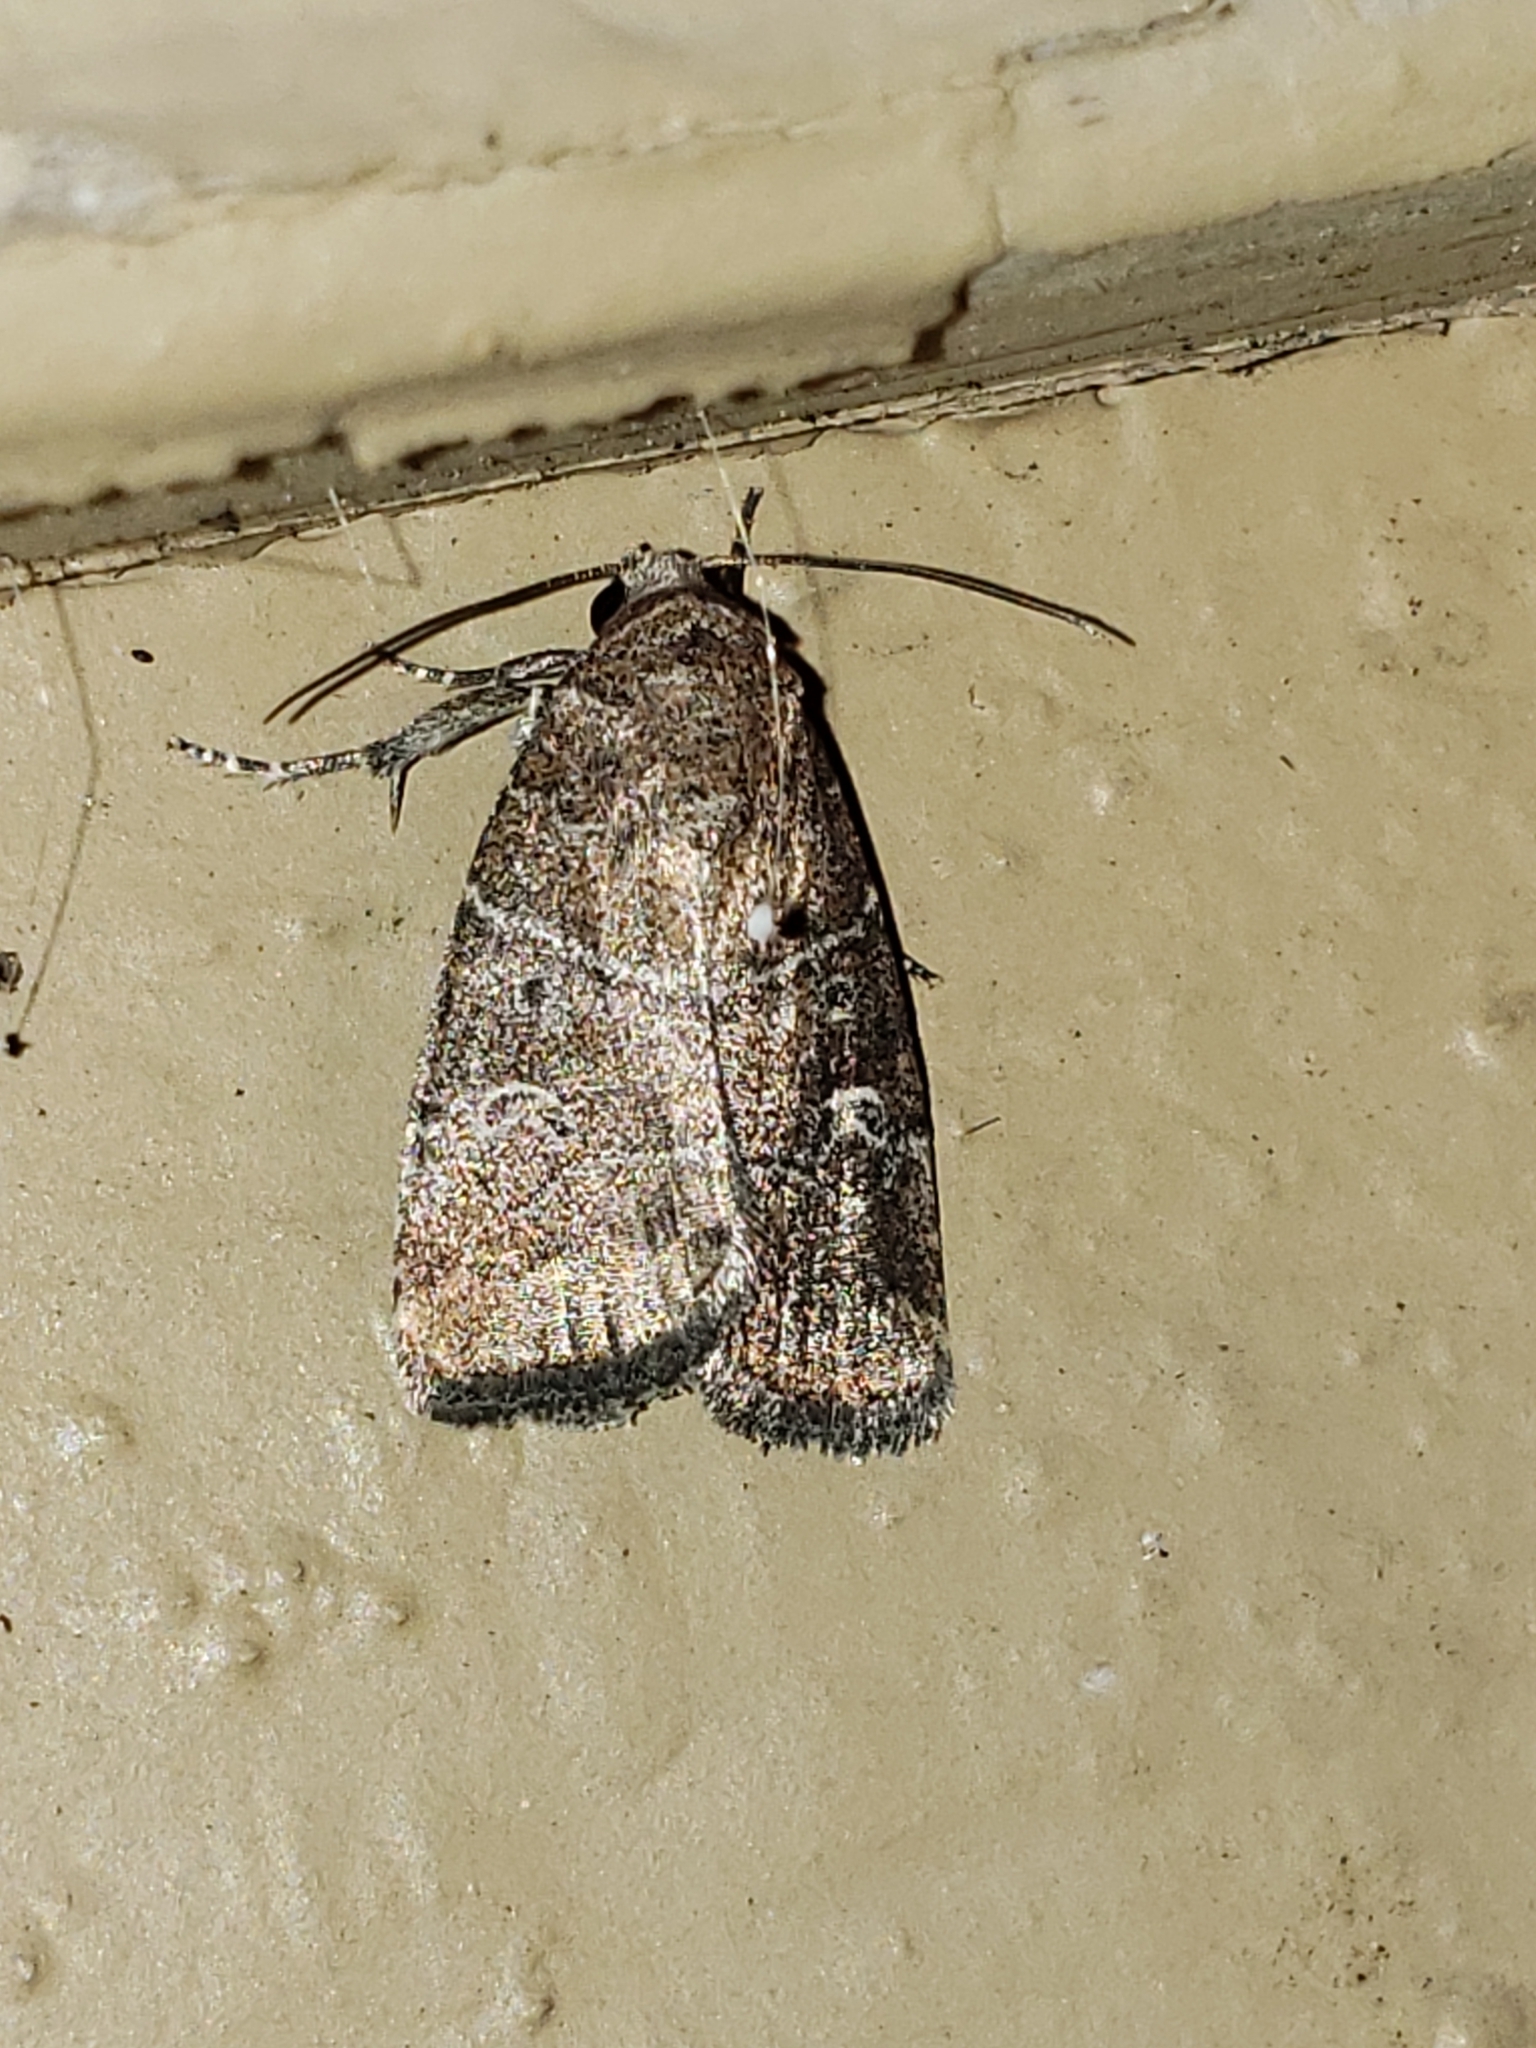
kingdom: Animalia
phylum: Arthropoda
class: Insecta
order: Lepidoptera
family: Noctuidae
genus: Elaphria
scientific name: Elaphria grata
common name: Grateful midget moth
